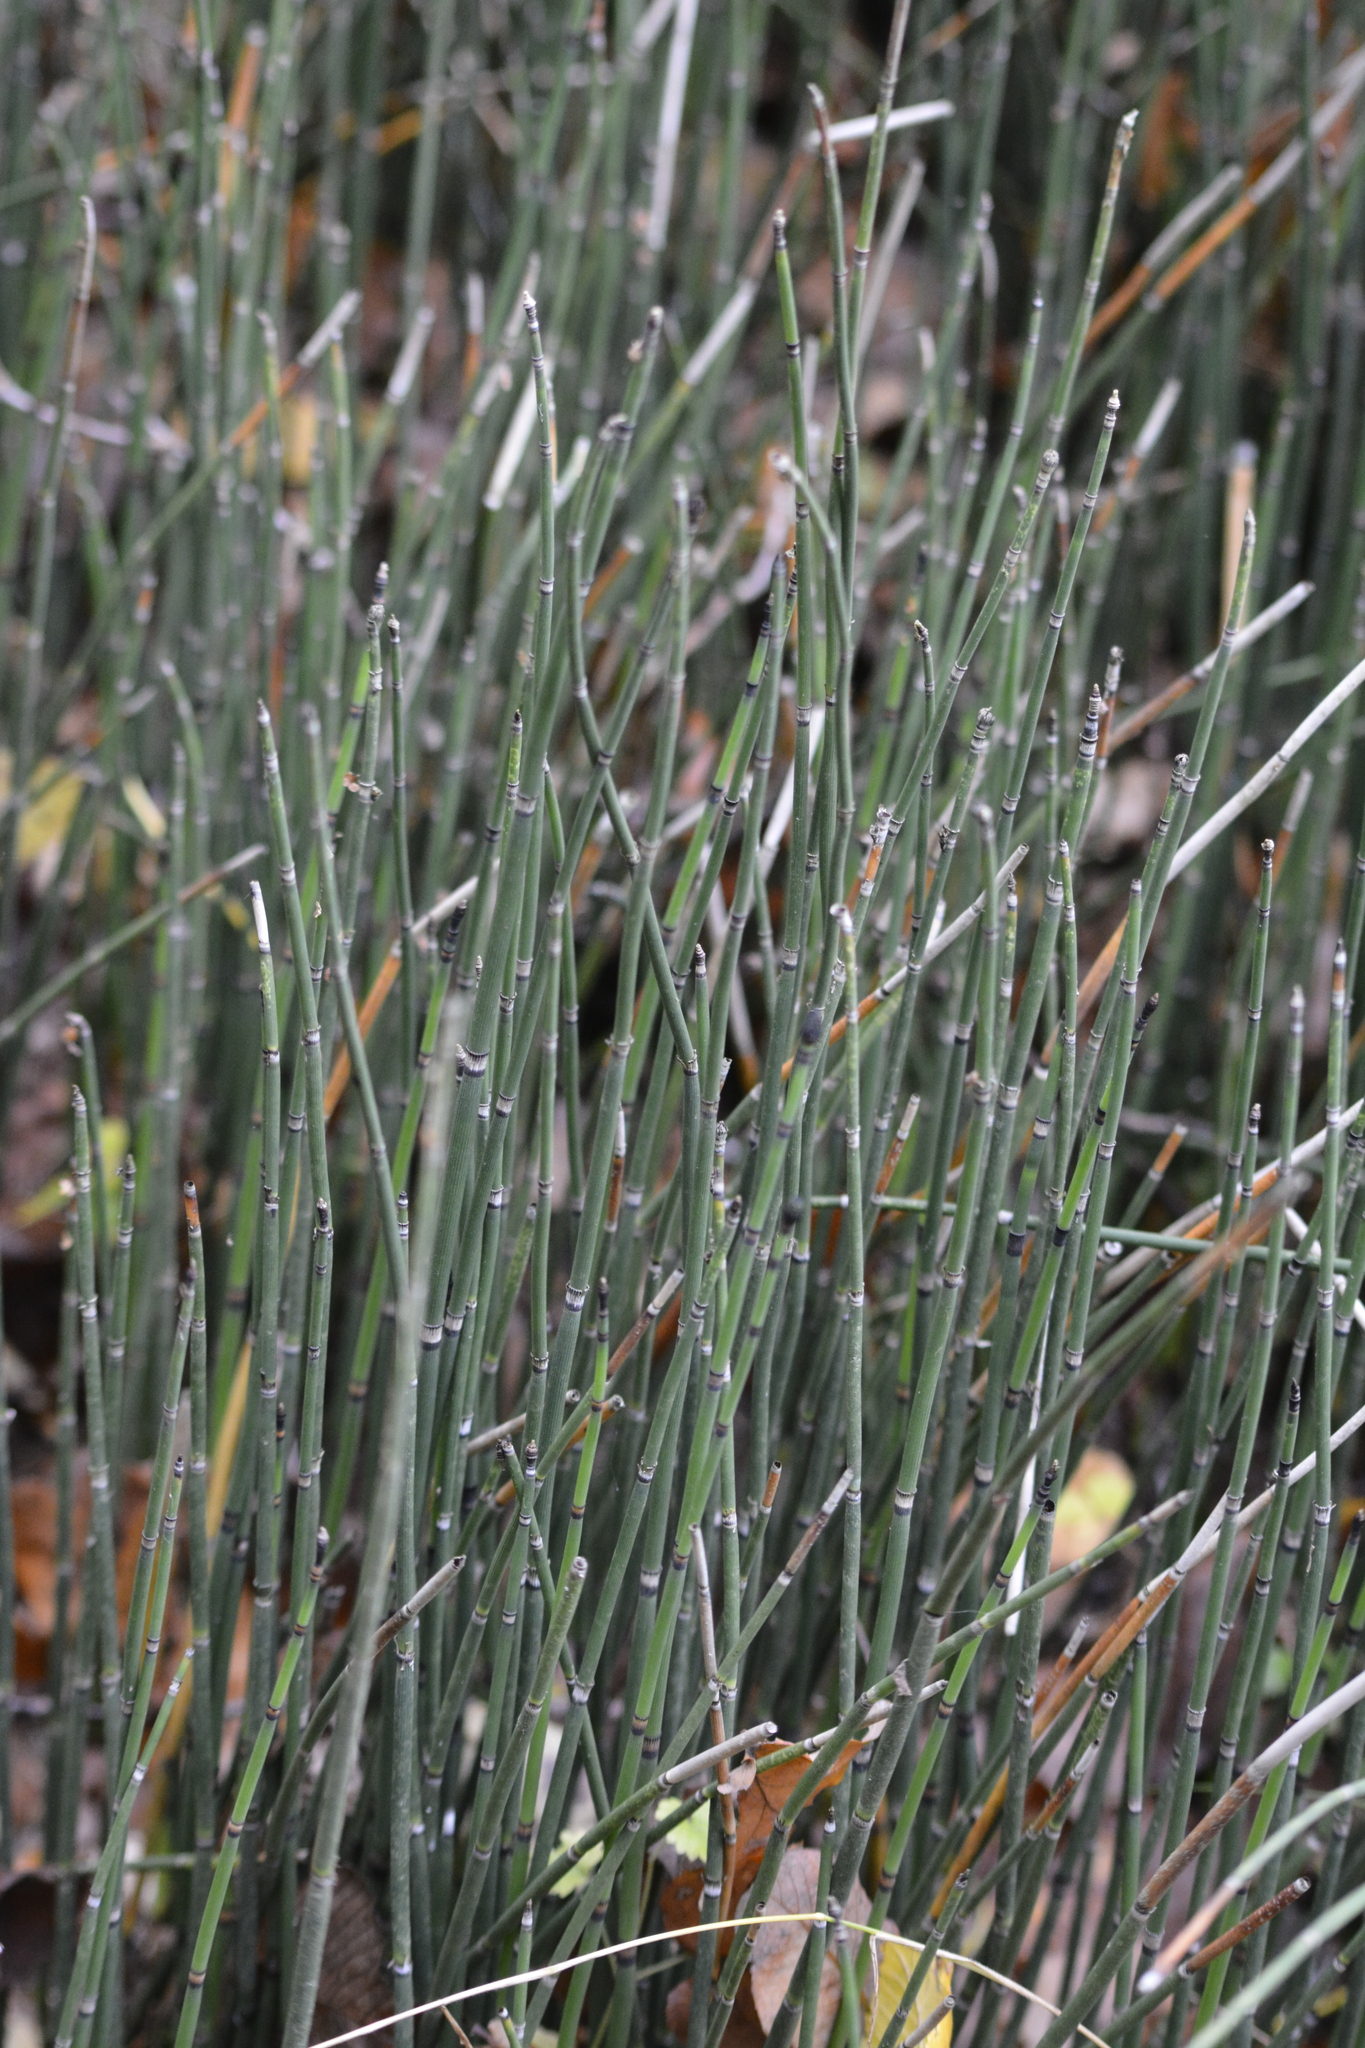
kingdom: Plantae
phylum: Tracheophyta
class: Polypodiopsida
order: Equisetales
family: Equisetaceae
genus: Equisetum
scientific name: Equisetum hyemale
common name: Rough horsetail
